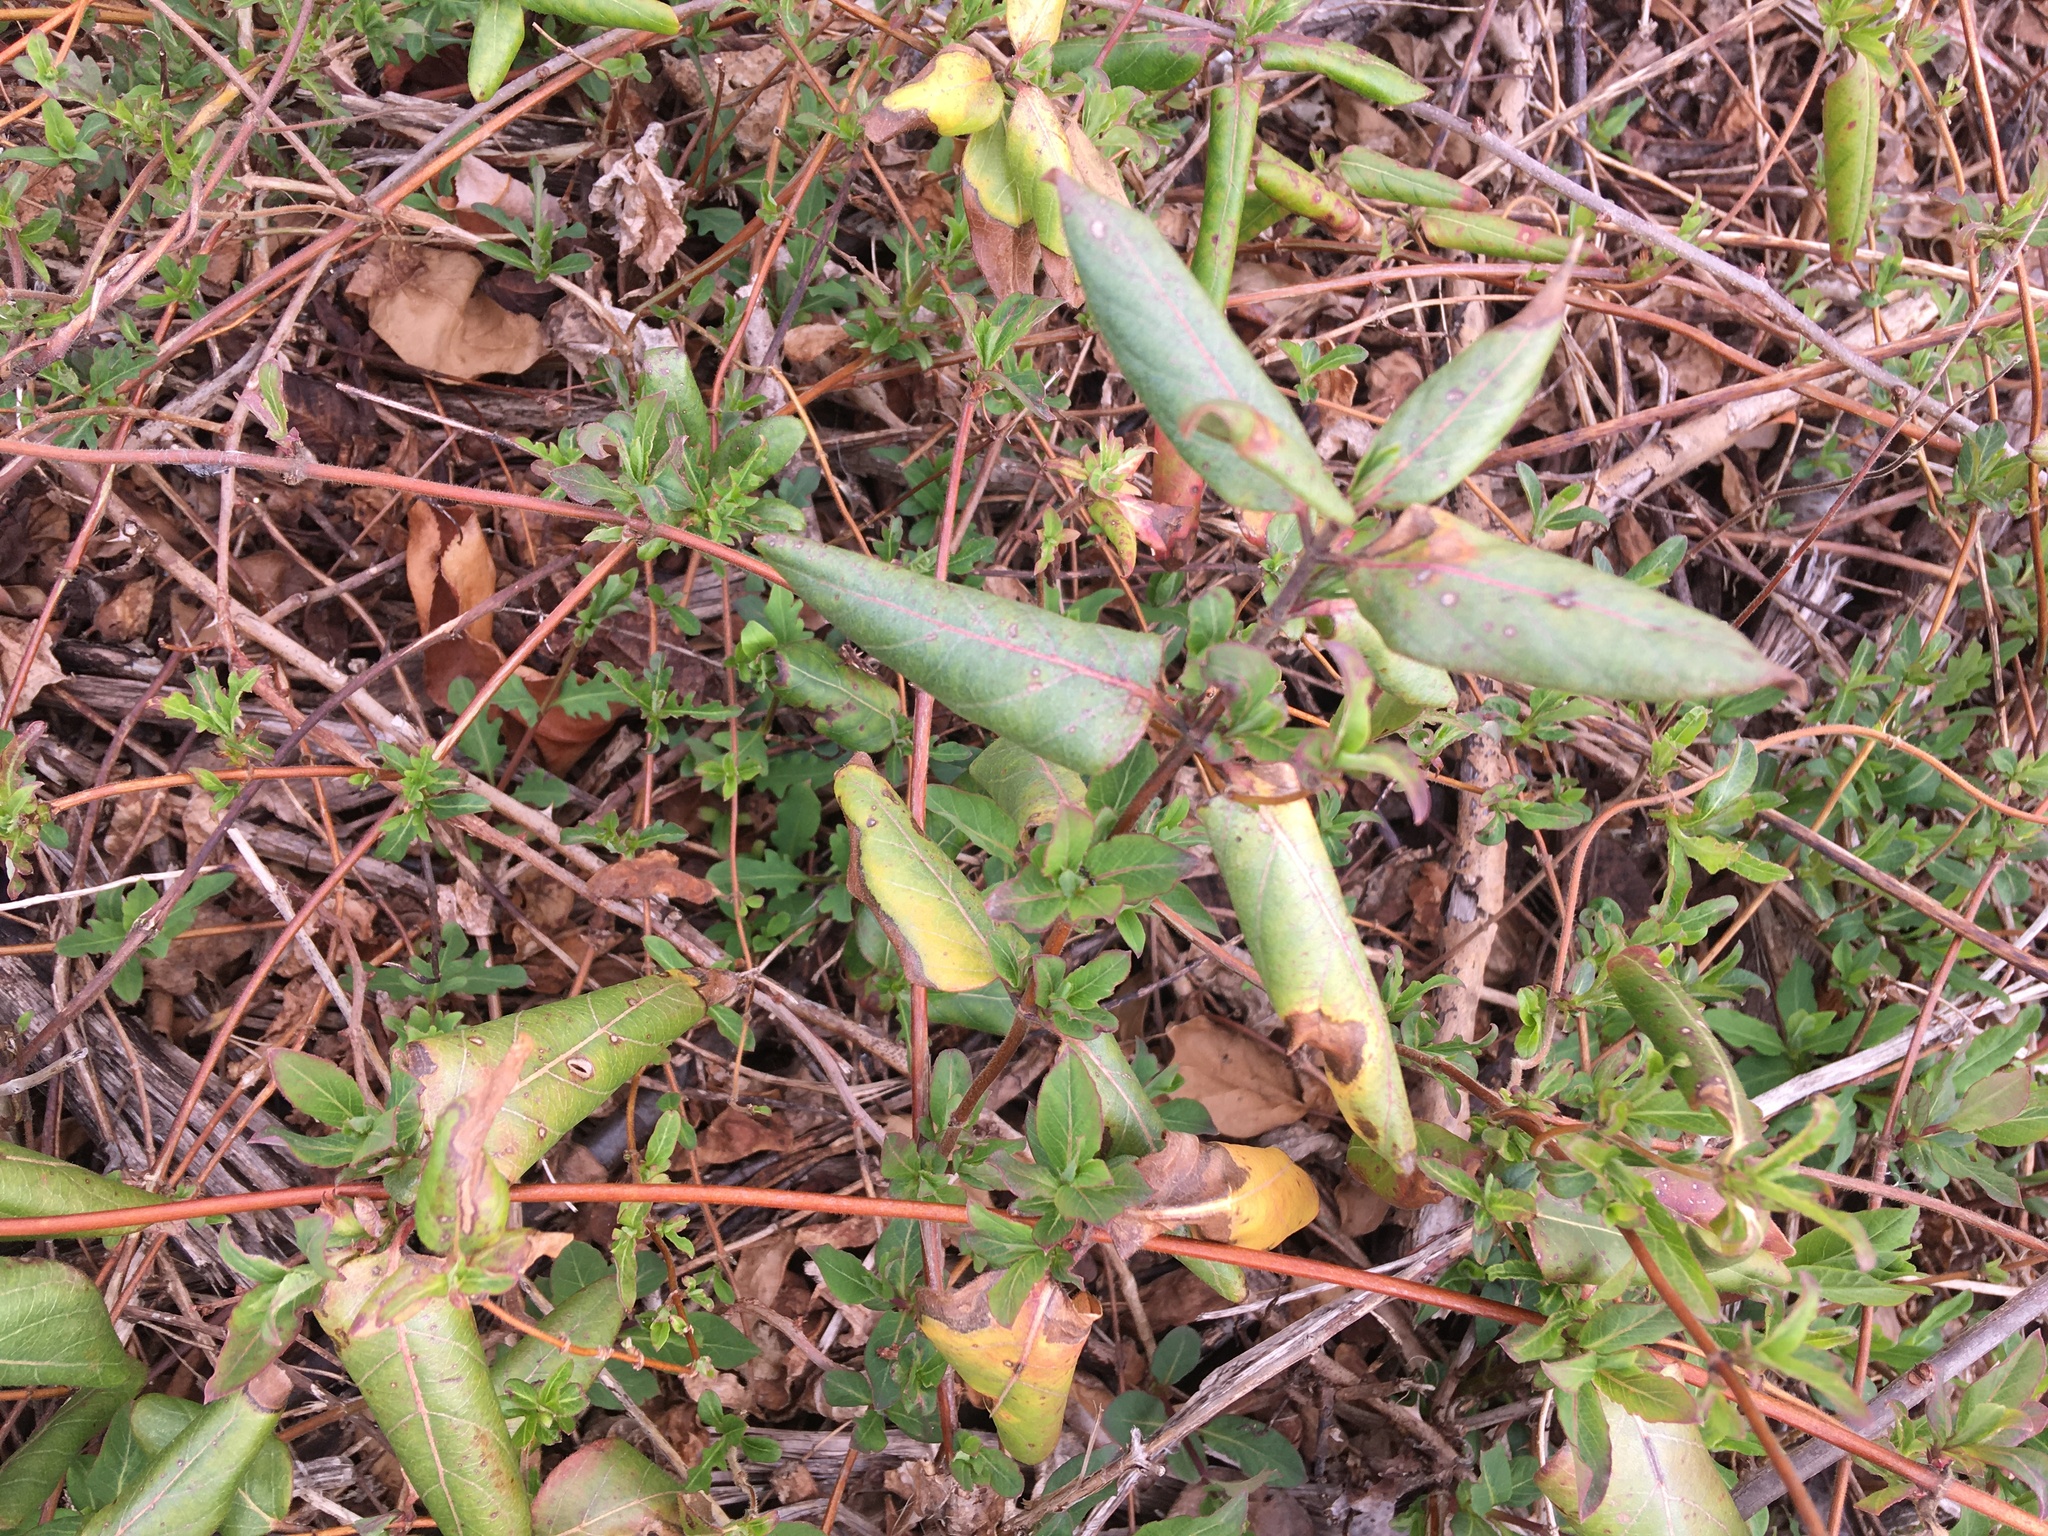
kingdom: Plantae
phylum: Tracheophyta
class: Magnoliopsida
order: Dipsacales
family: Caprifoliaceae
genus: Lonicera
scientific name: Lonicera japonica
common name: Japanese honeysuckle
